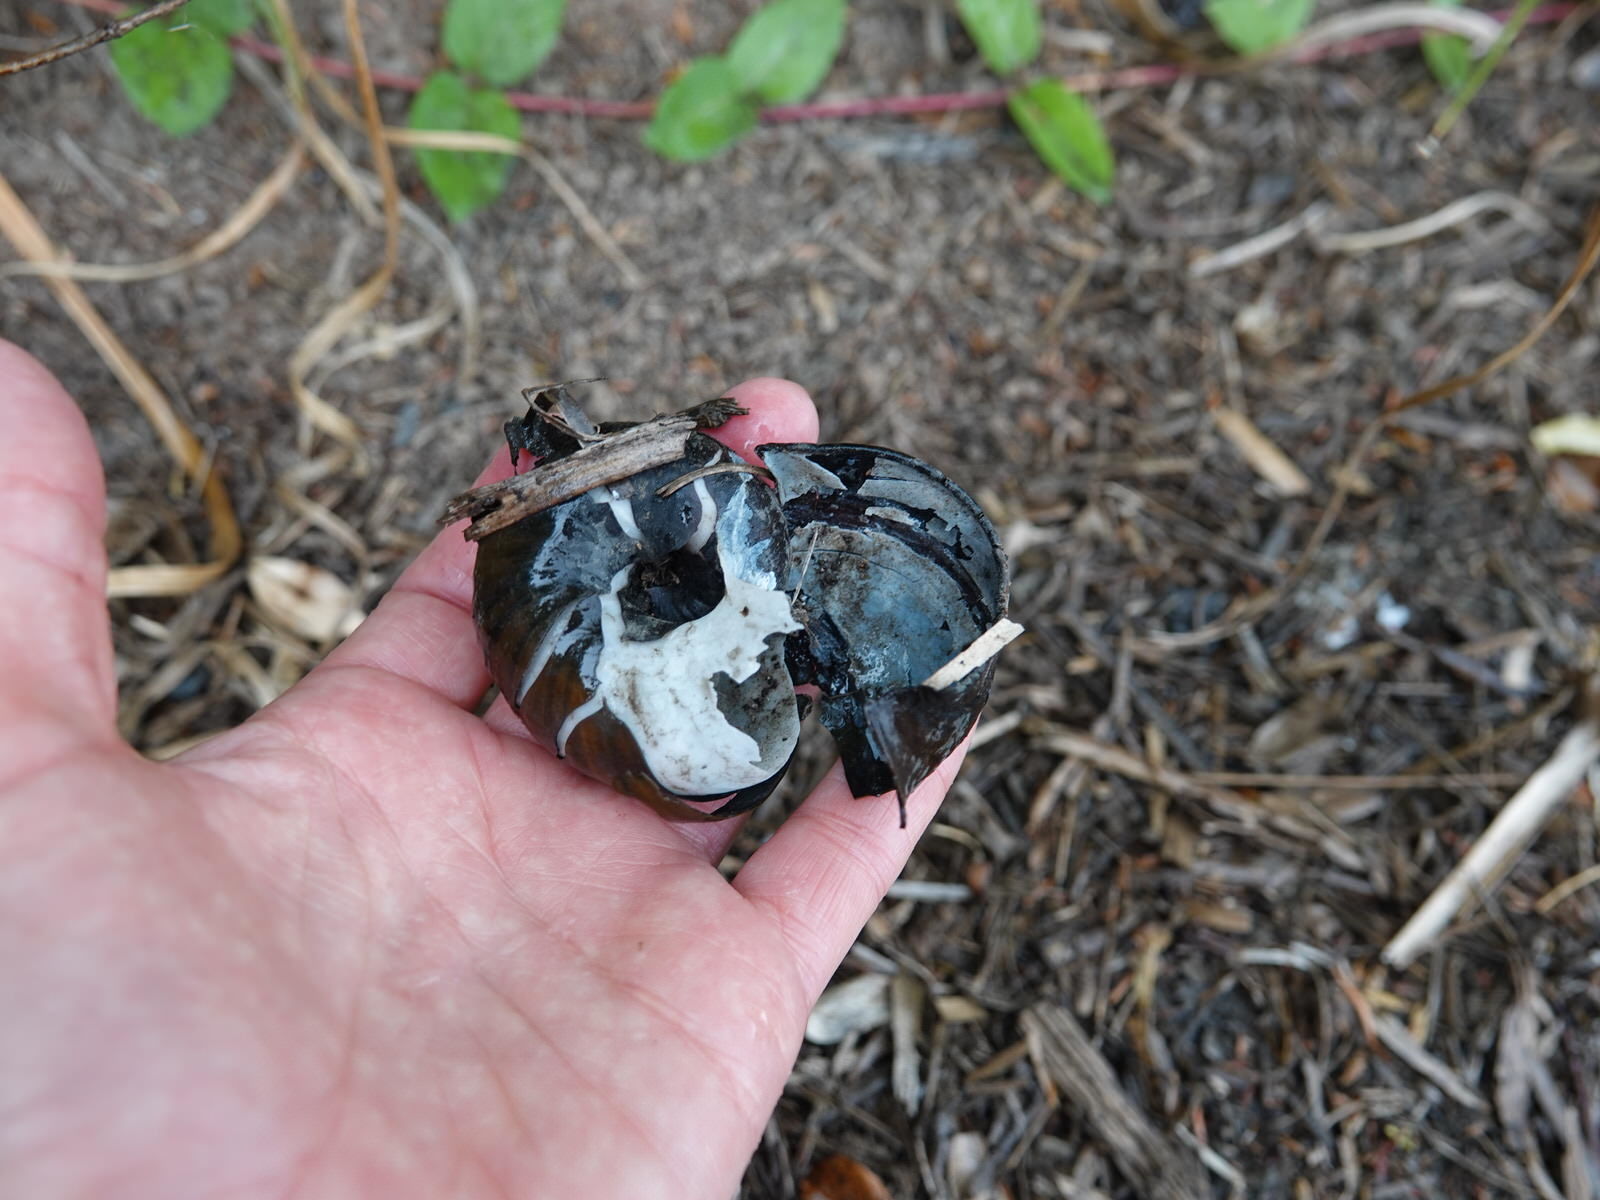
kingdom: Animalia
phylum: Mollusca
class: Gastropoda
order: Stylommatophora
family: Rhytididae
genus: Paryphanta
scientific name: Paryphanta busbyi
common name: Kauri snail
